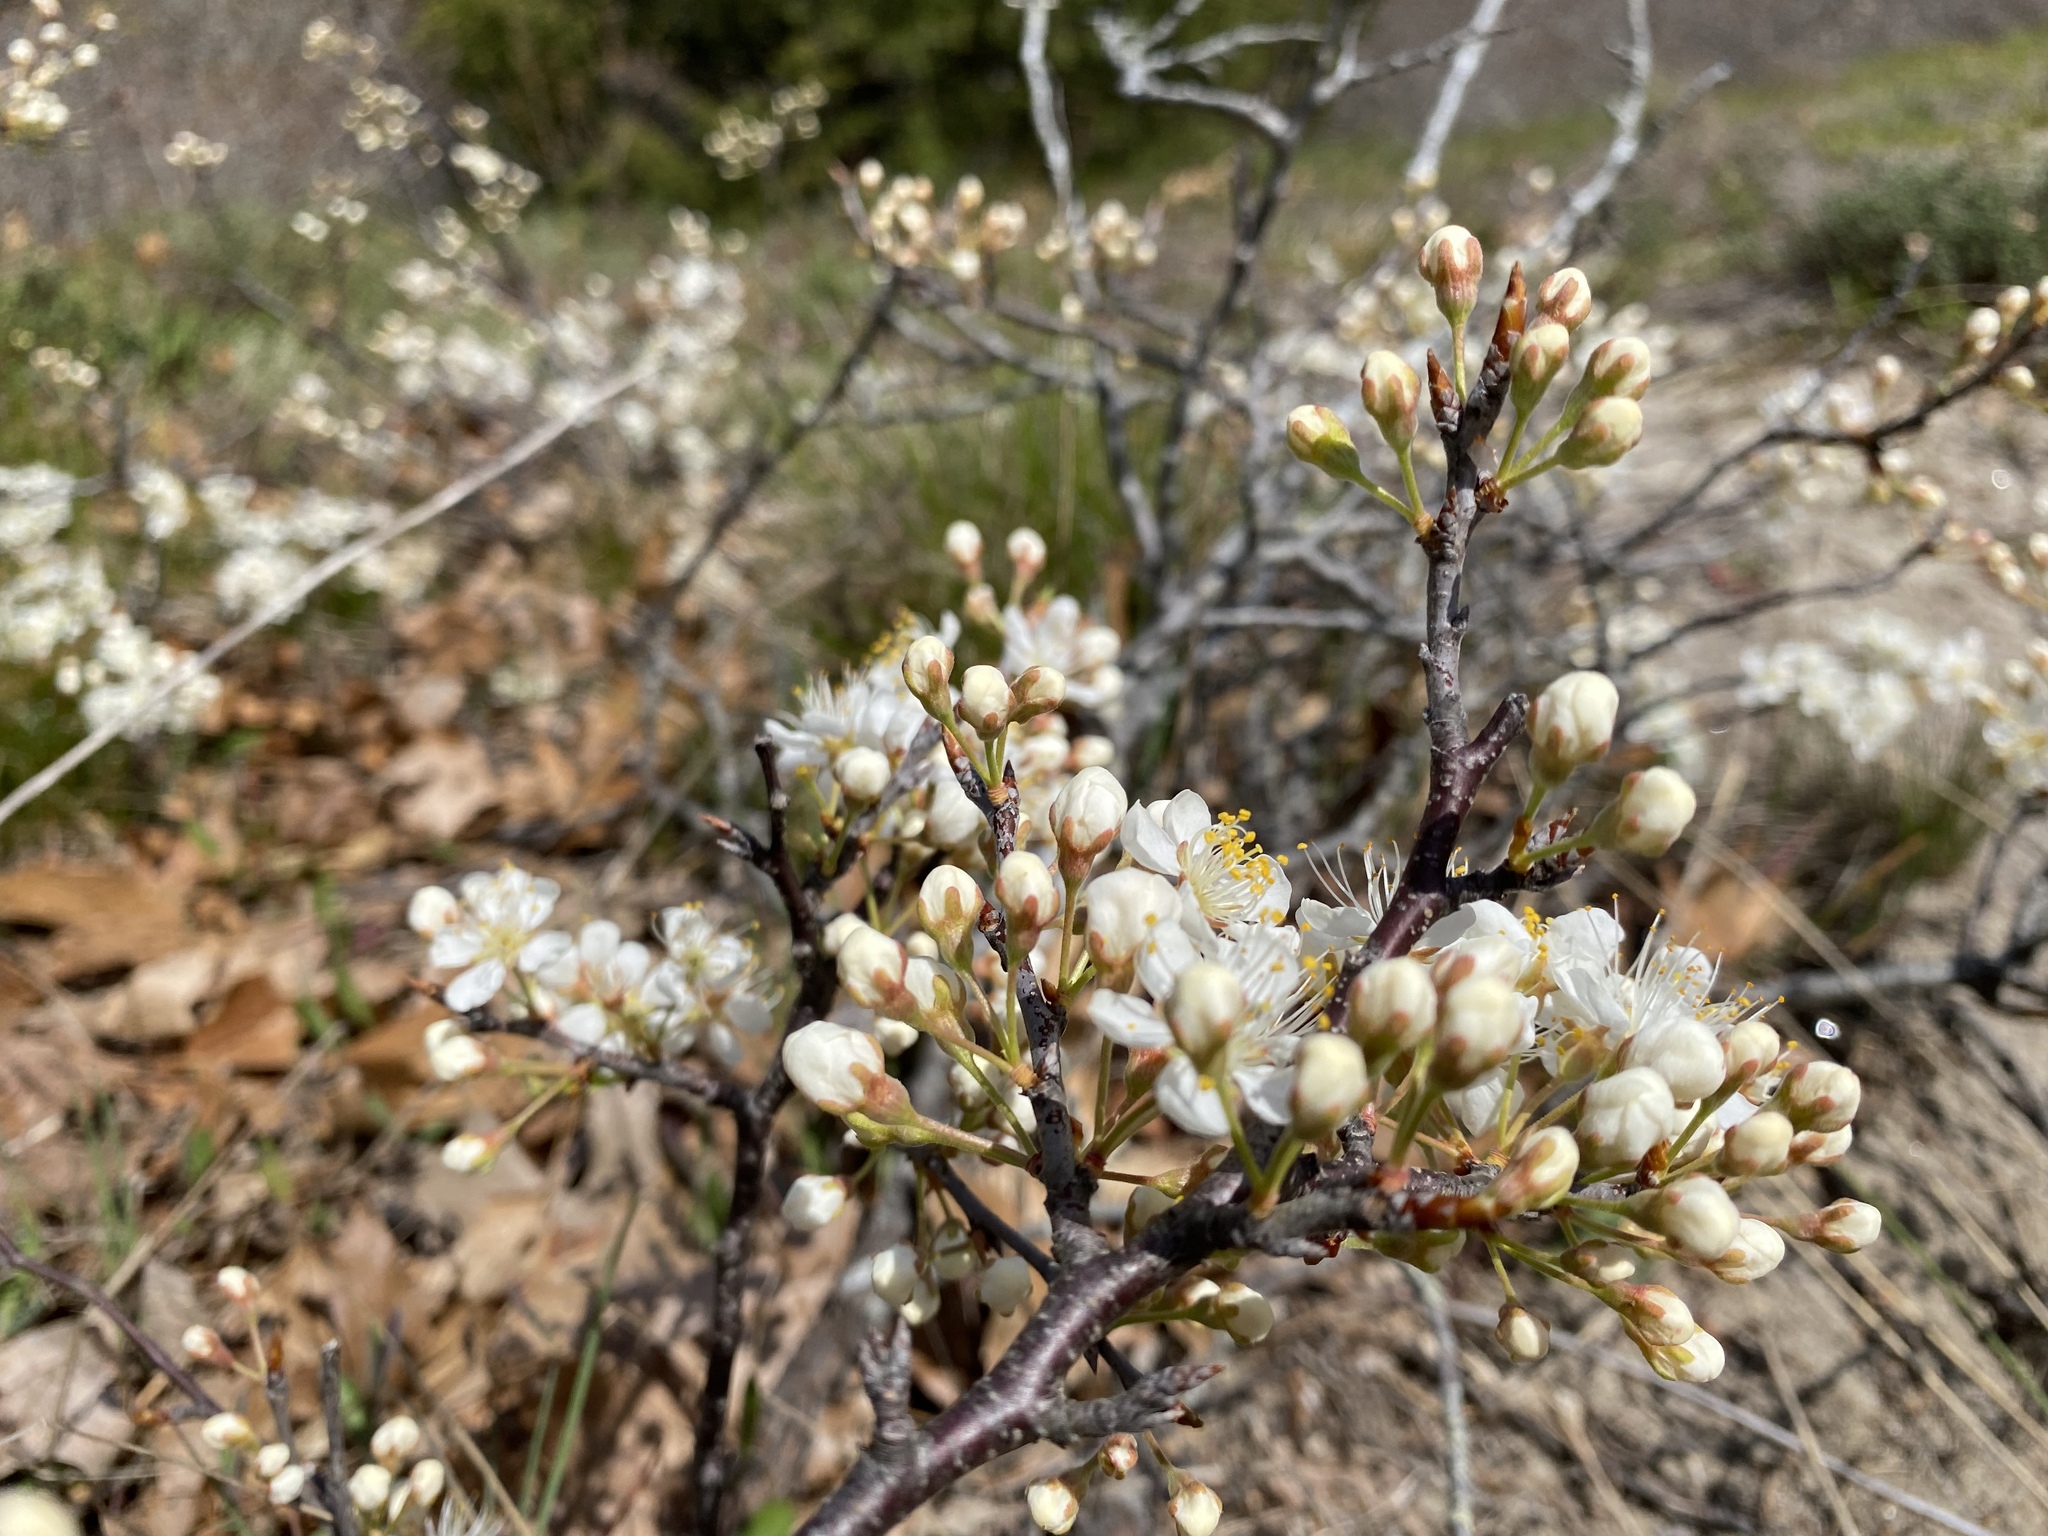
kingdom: Plantae
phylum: Tracheophyta
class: Magnoliopsida
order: Rosales
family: Rosaceae
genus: Prunus
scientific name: Prunus maritima
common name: Beach plum
